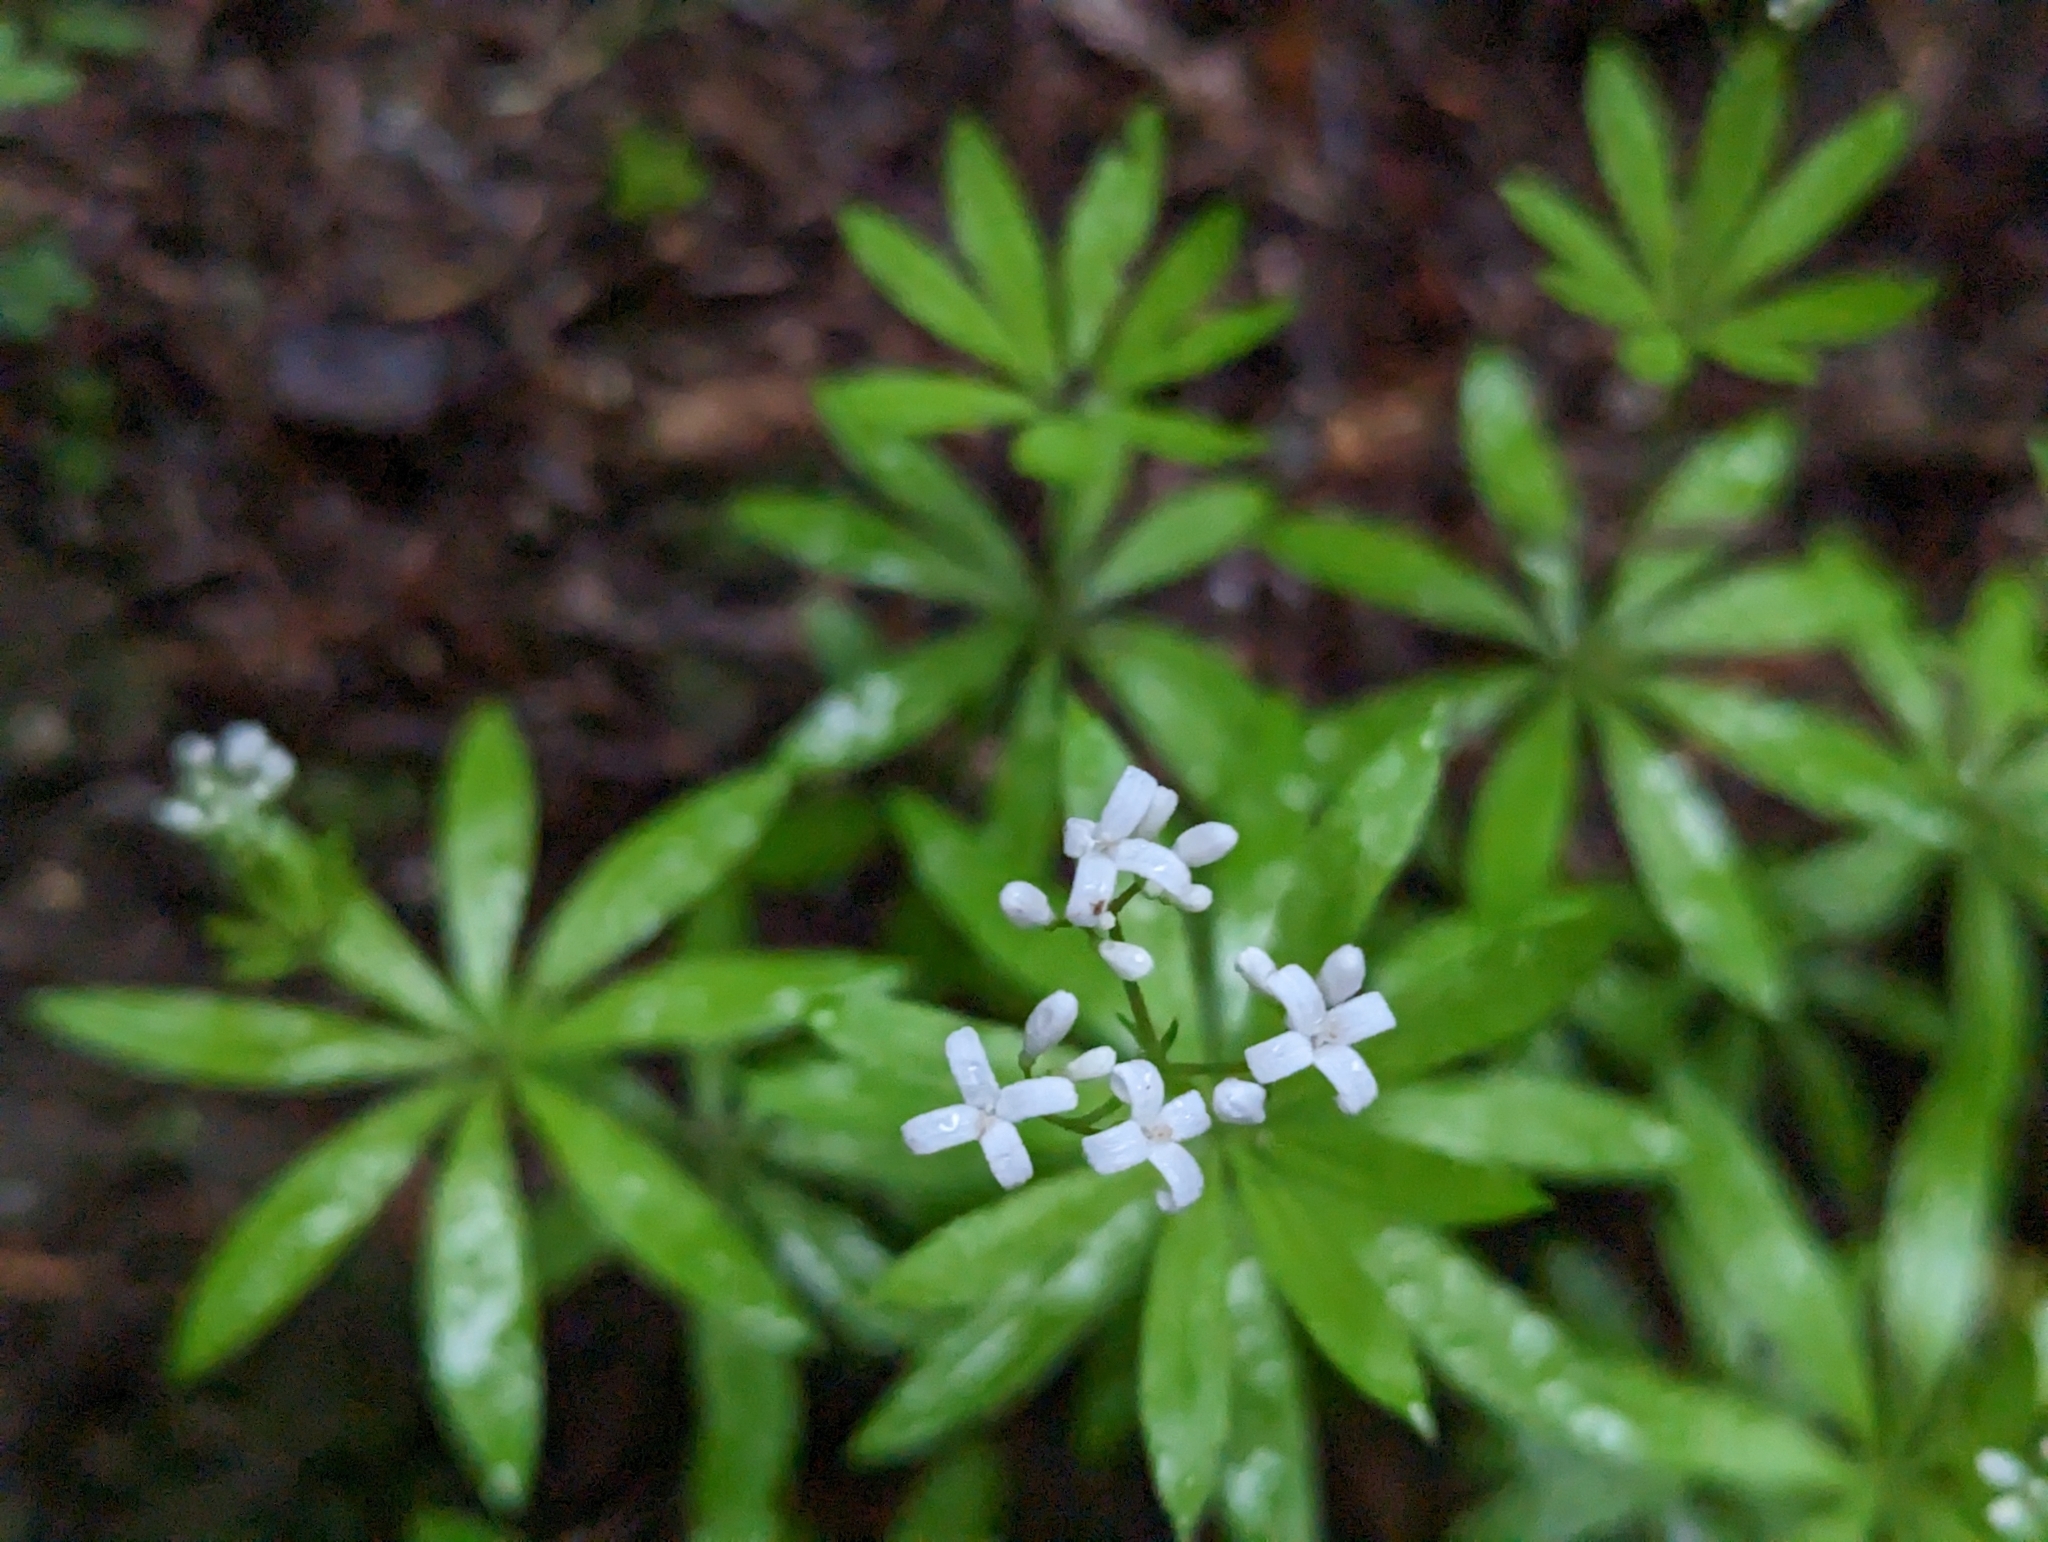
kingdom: Plantae
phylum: Tracheophyta
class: Magnoliopsida
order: Gentianales
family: Rubiaceae
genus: Galium
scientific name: Galium odoratum
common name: Sweet woodruff
